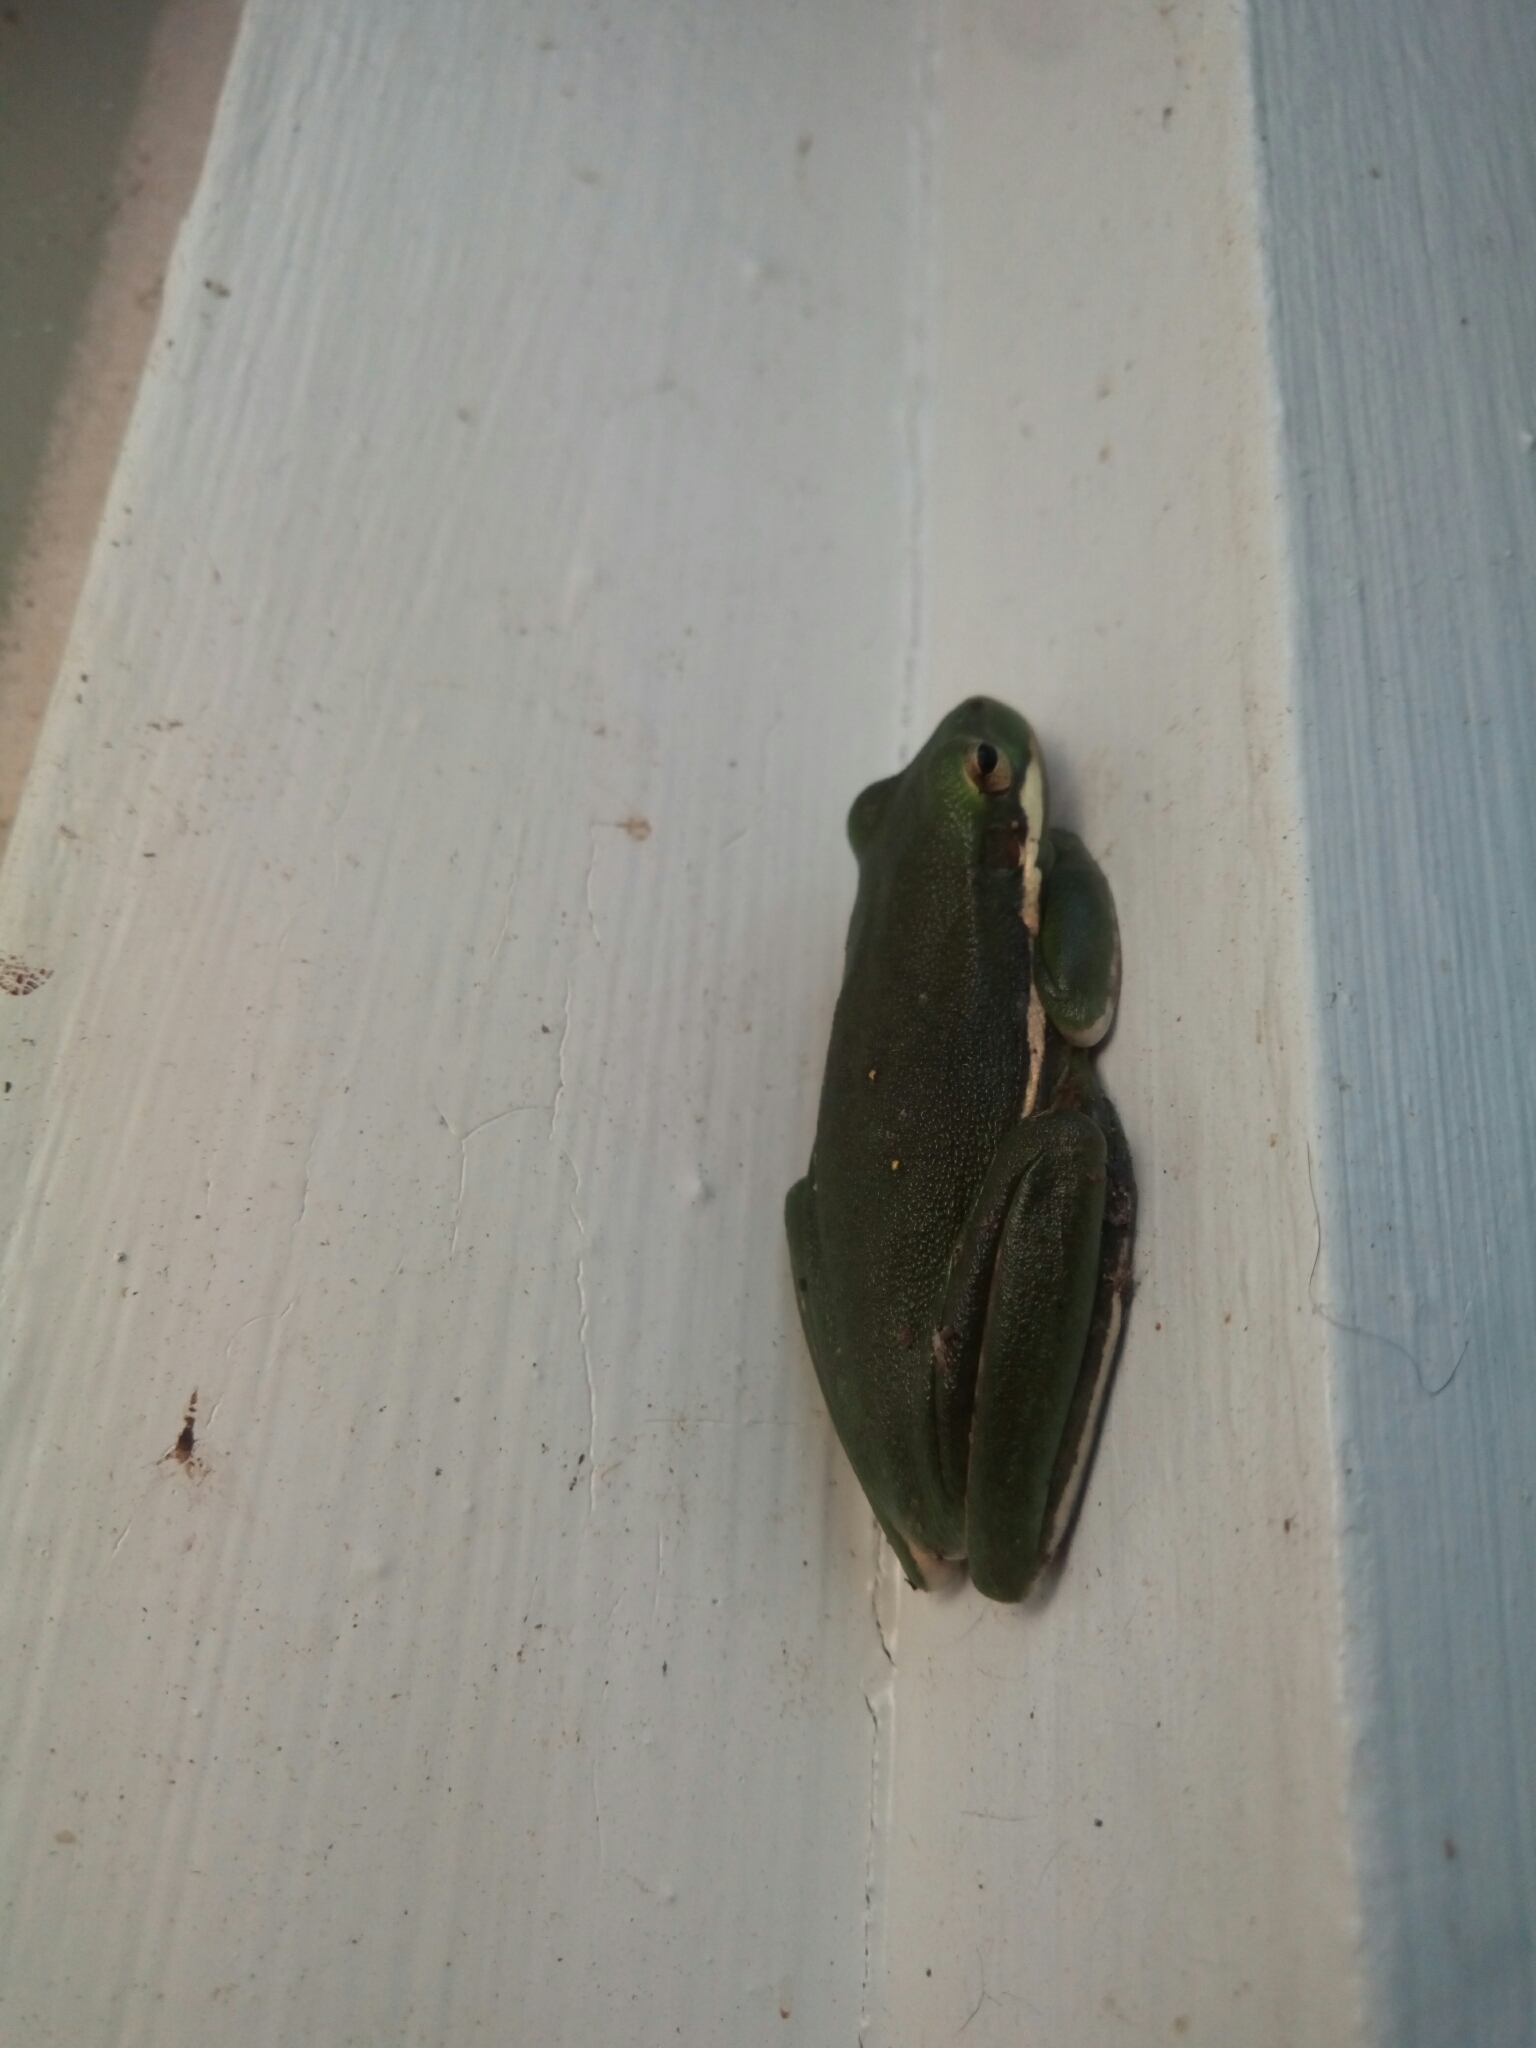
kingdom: Animalia
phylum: Chordata
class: Amphibia
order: Anura
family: Hylidae
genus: Dryophytes
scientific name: Dryophytes cinereus
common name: Green treefrog
